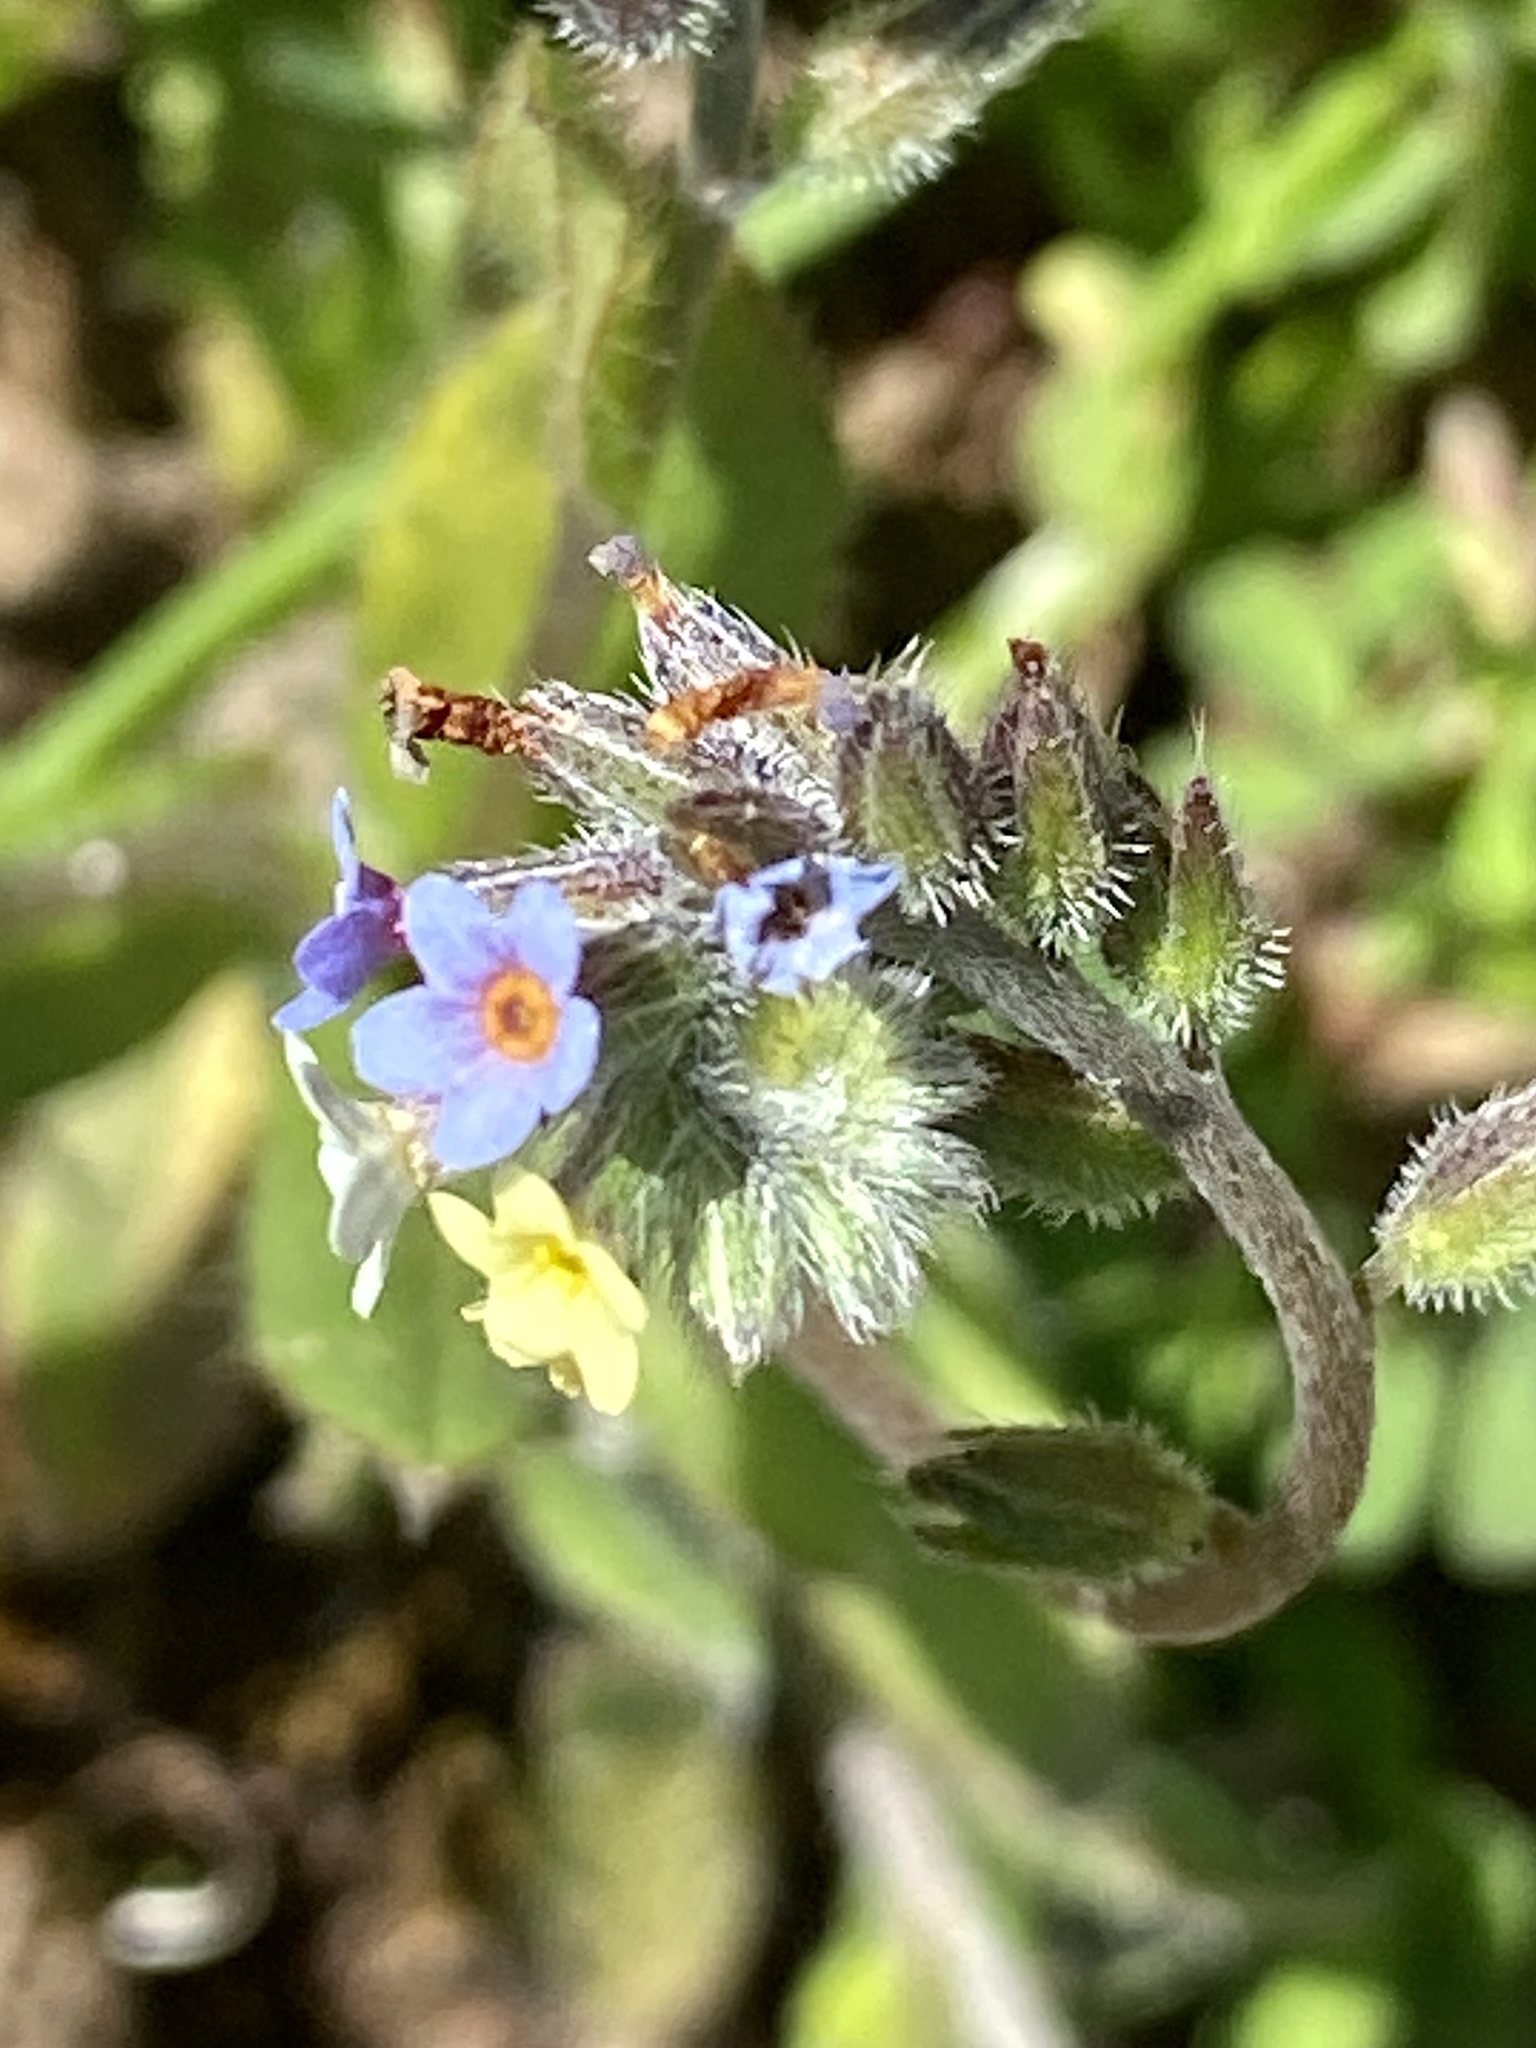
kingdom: Plantae
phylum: Tracheophyta
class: Magnoliopsida
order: Boraginales
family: Boraginaceae
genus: Myosotis
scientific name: Myosotis discolor
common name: Changing forget-me-not
